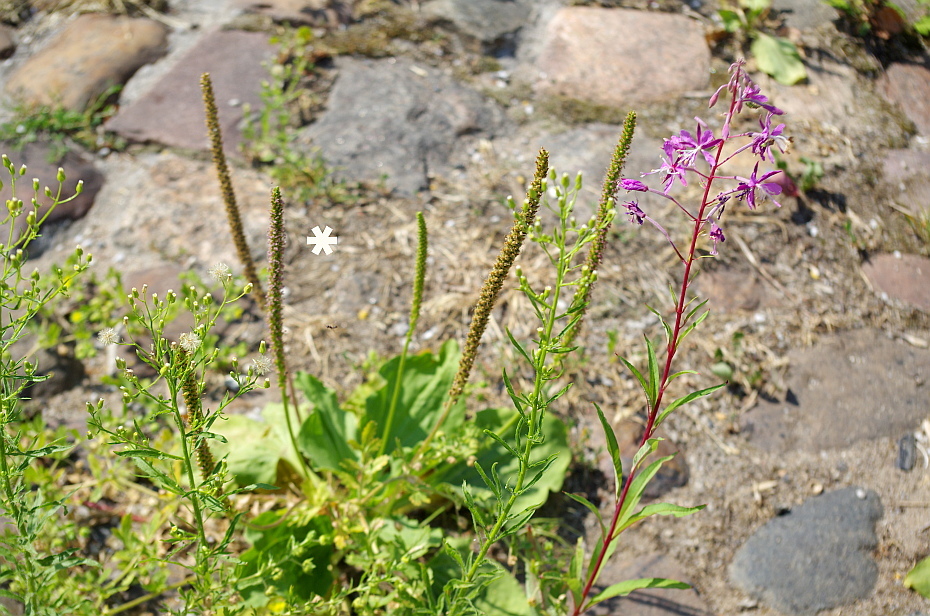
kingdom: Plantae
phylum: Tracheophyta
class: Magnoliopsida
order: Lamiales
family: Plantaginaceae
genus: Plantago
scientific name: Plantago major
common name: Common plantain
